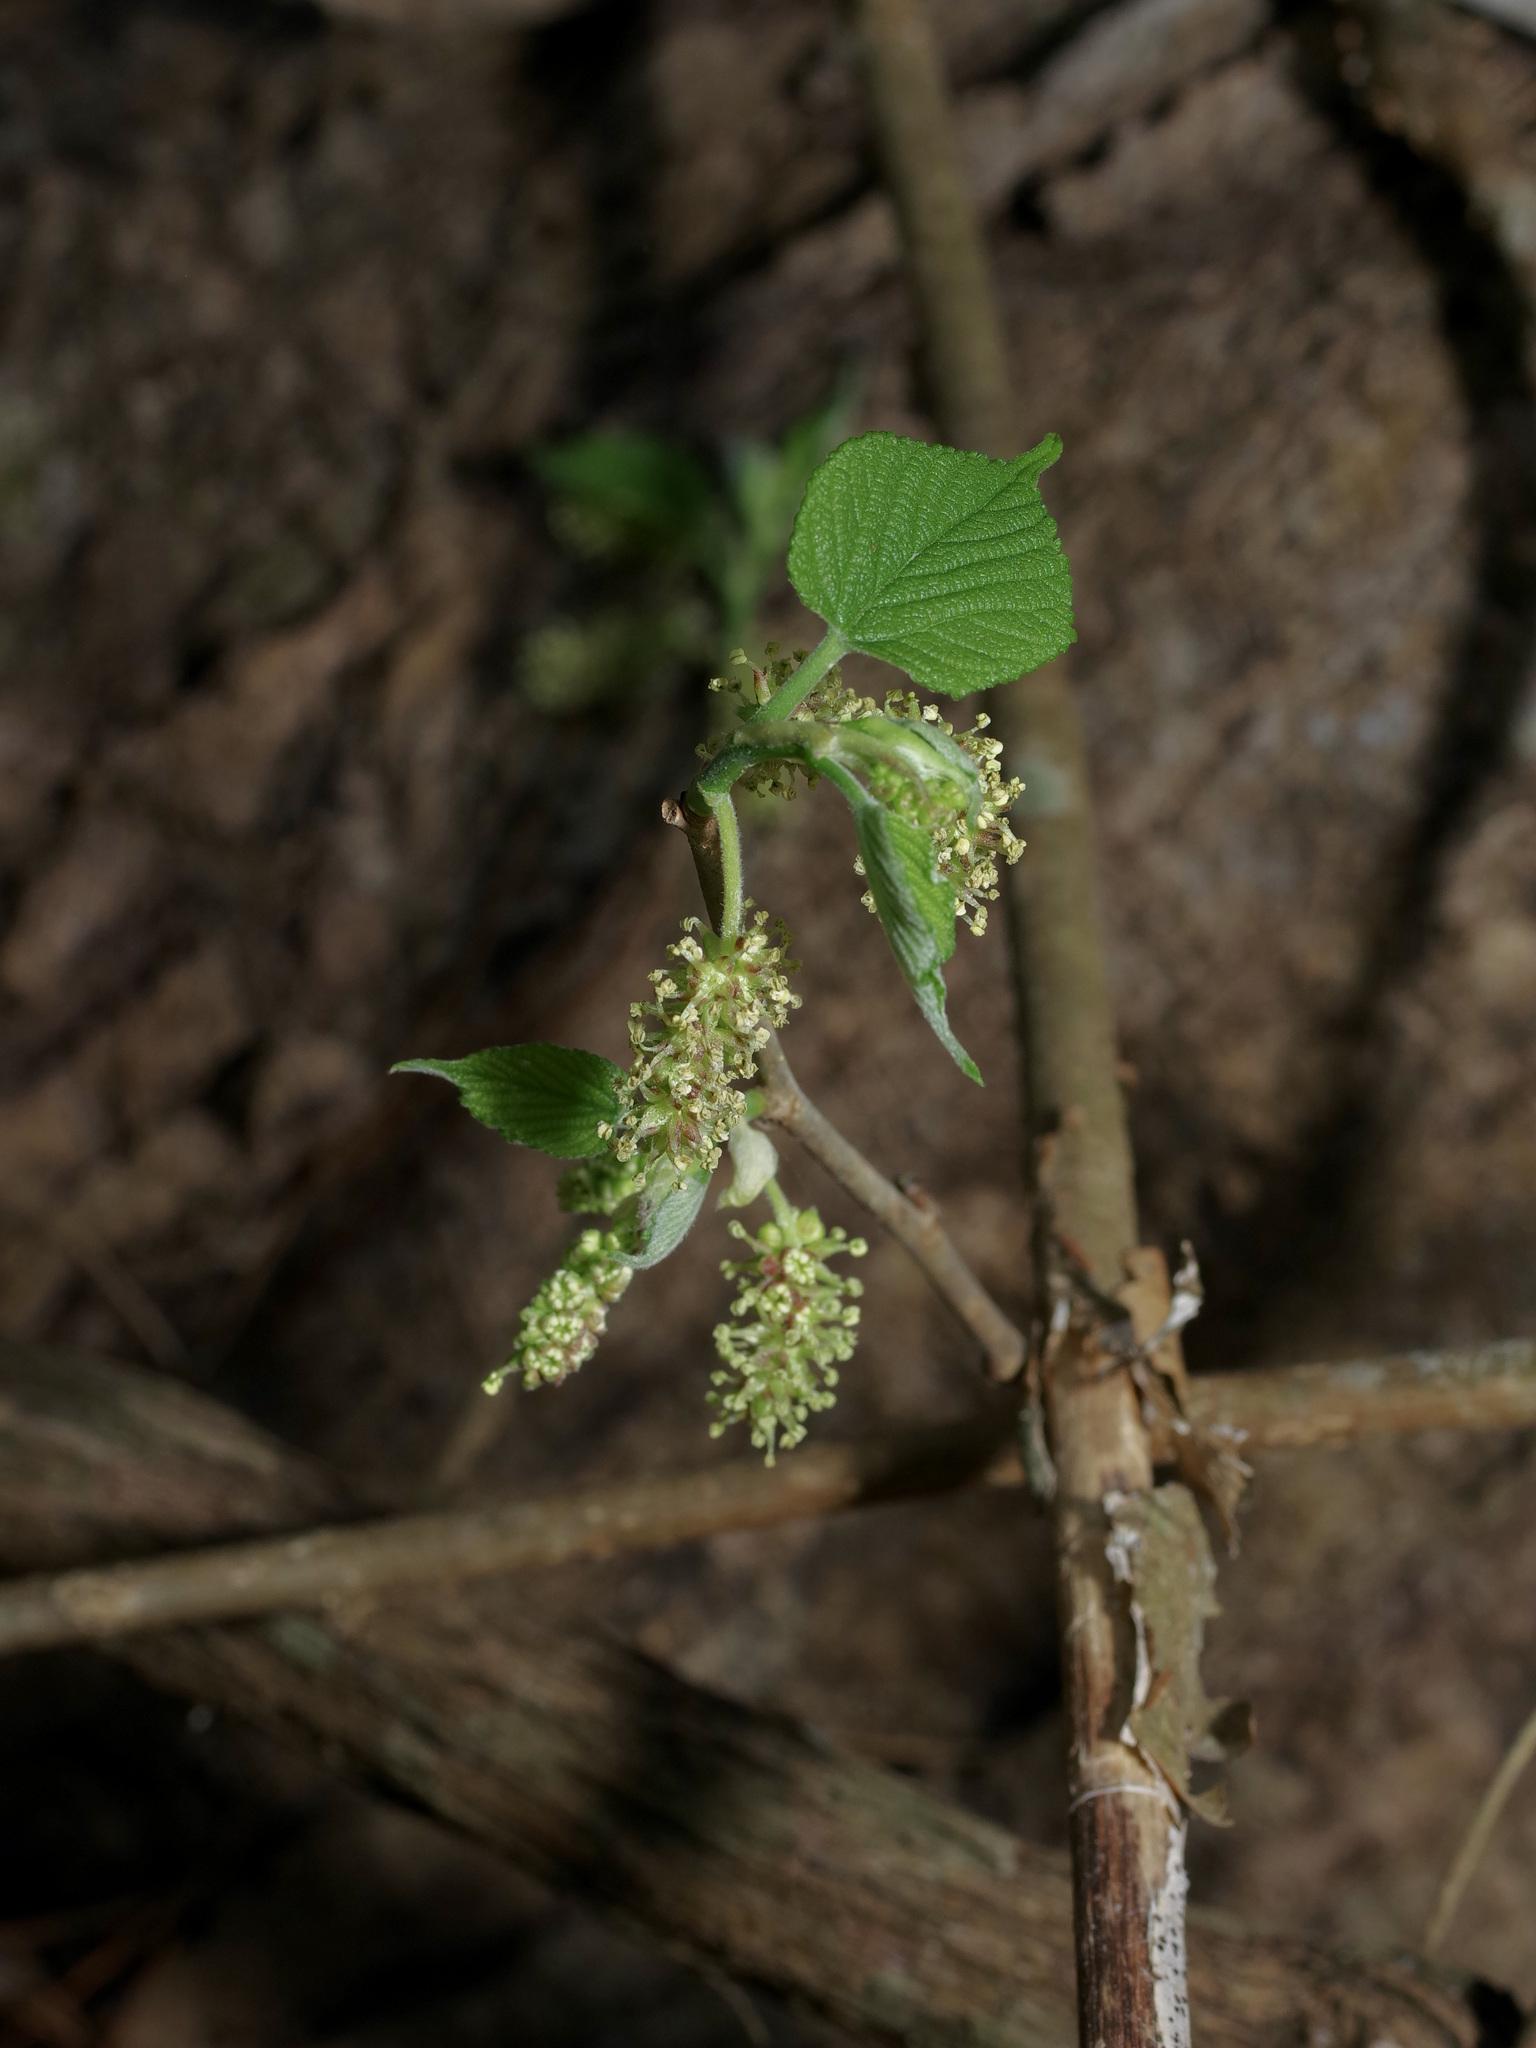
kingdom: Plantae
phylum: Tracheophyta
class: Magnoliopsida
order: Rosales
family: Moraceae
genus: Morus
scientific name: Morus rubra
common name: Red mulberry
